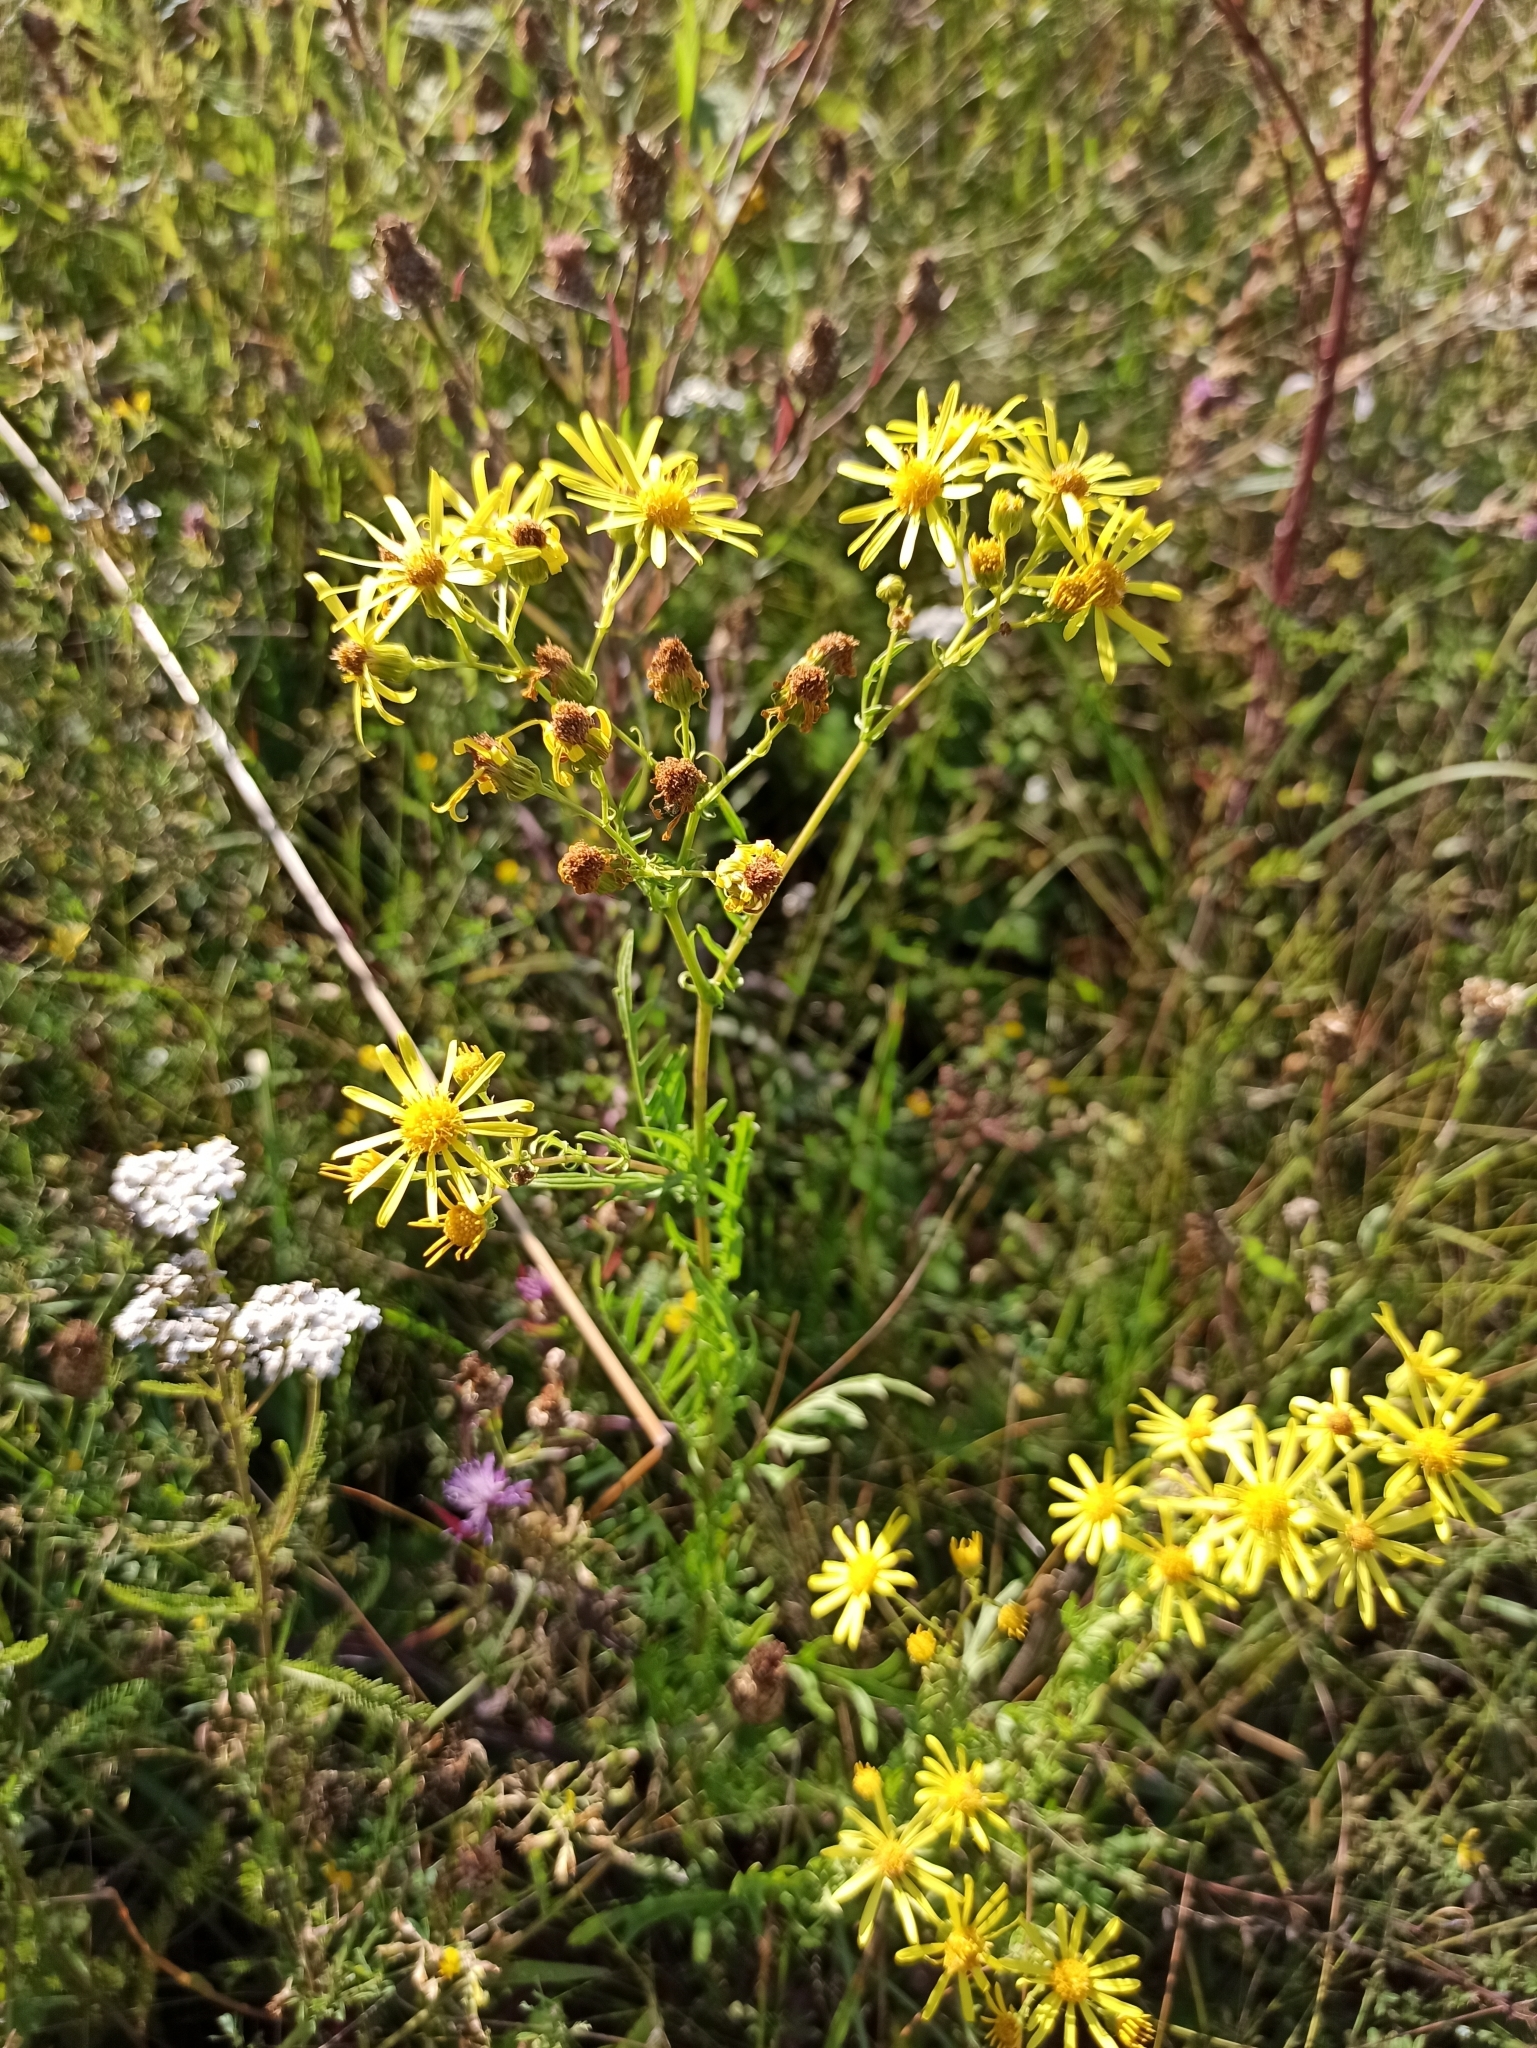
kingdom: Plantae
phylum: Tracheophyta
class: Magnoliopsida
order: Asterales
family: Asteraceae
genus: Jacobaea
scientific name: Jacobaea vulgaris
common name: Stinking willie
